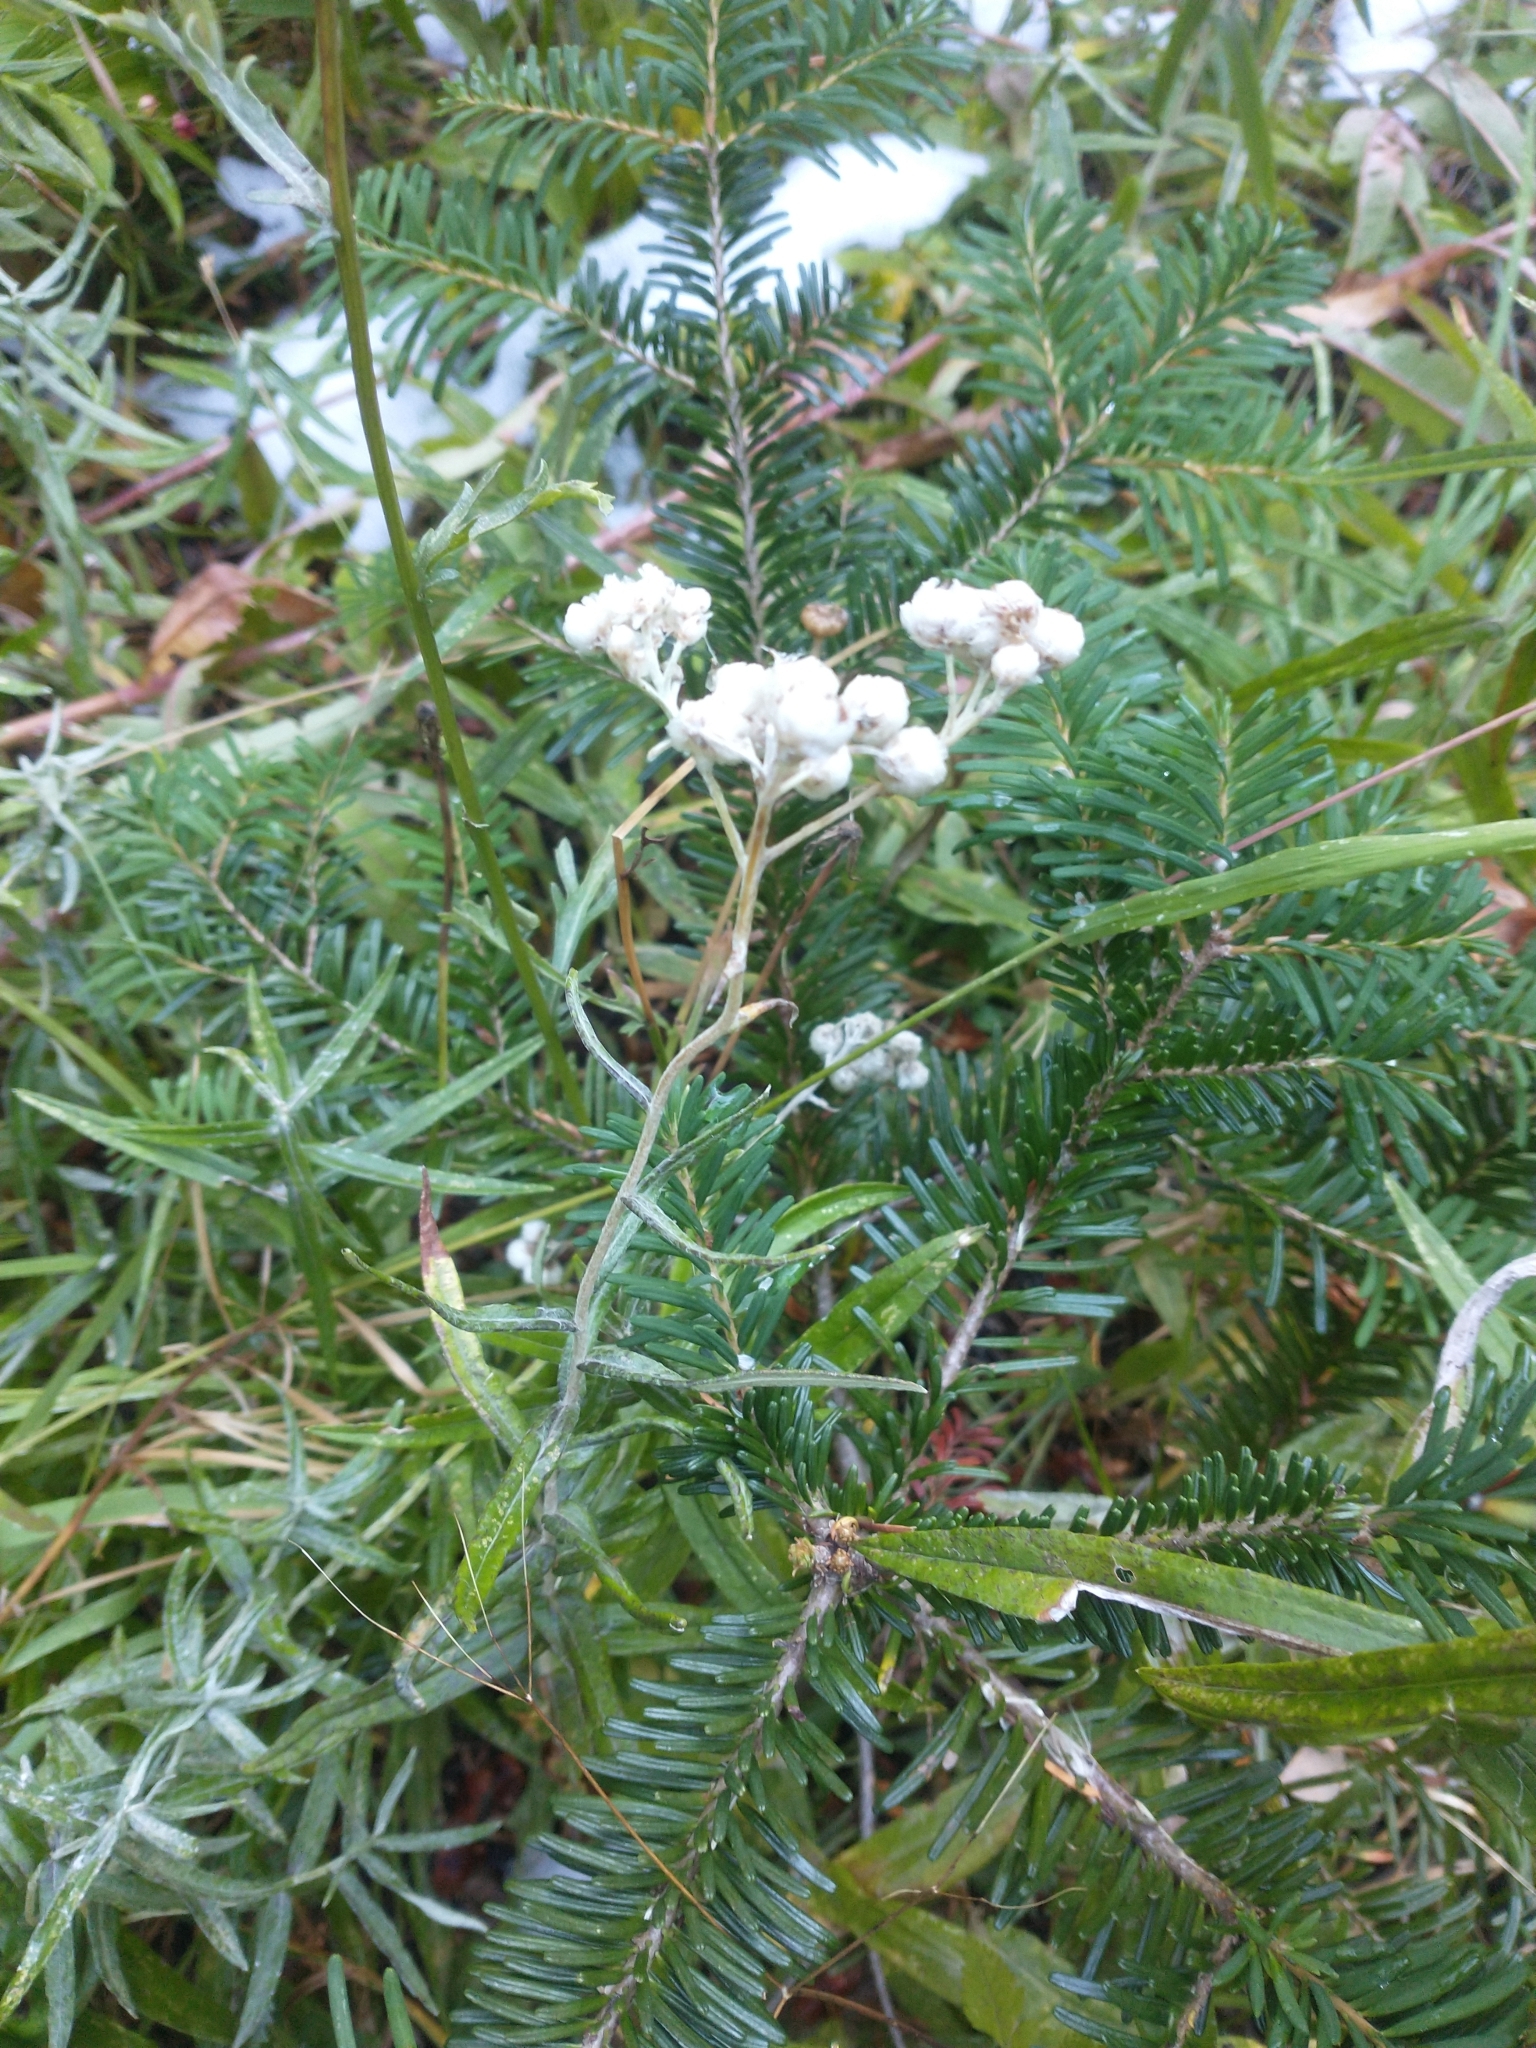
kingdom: Plantae
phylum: Tracheophyta
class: Magnoliopsida
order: Asterales
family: Asteraceae
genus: Anaphalis
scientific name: Anaphalis margaritacea
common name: Pearly everlasting
